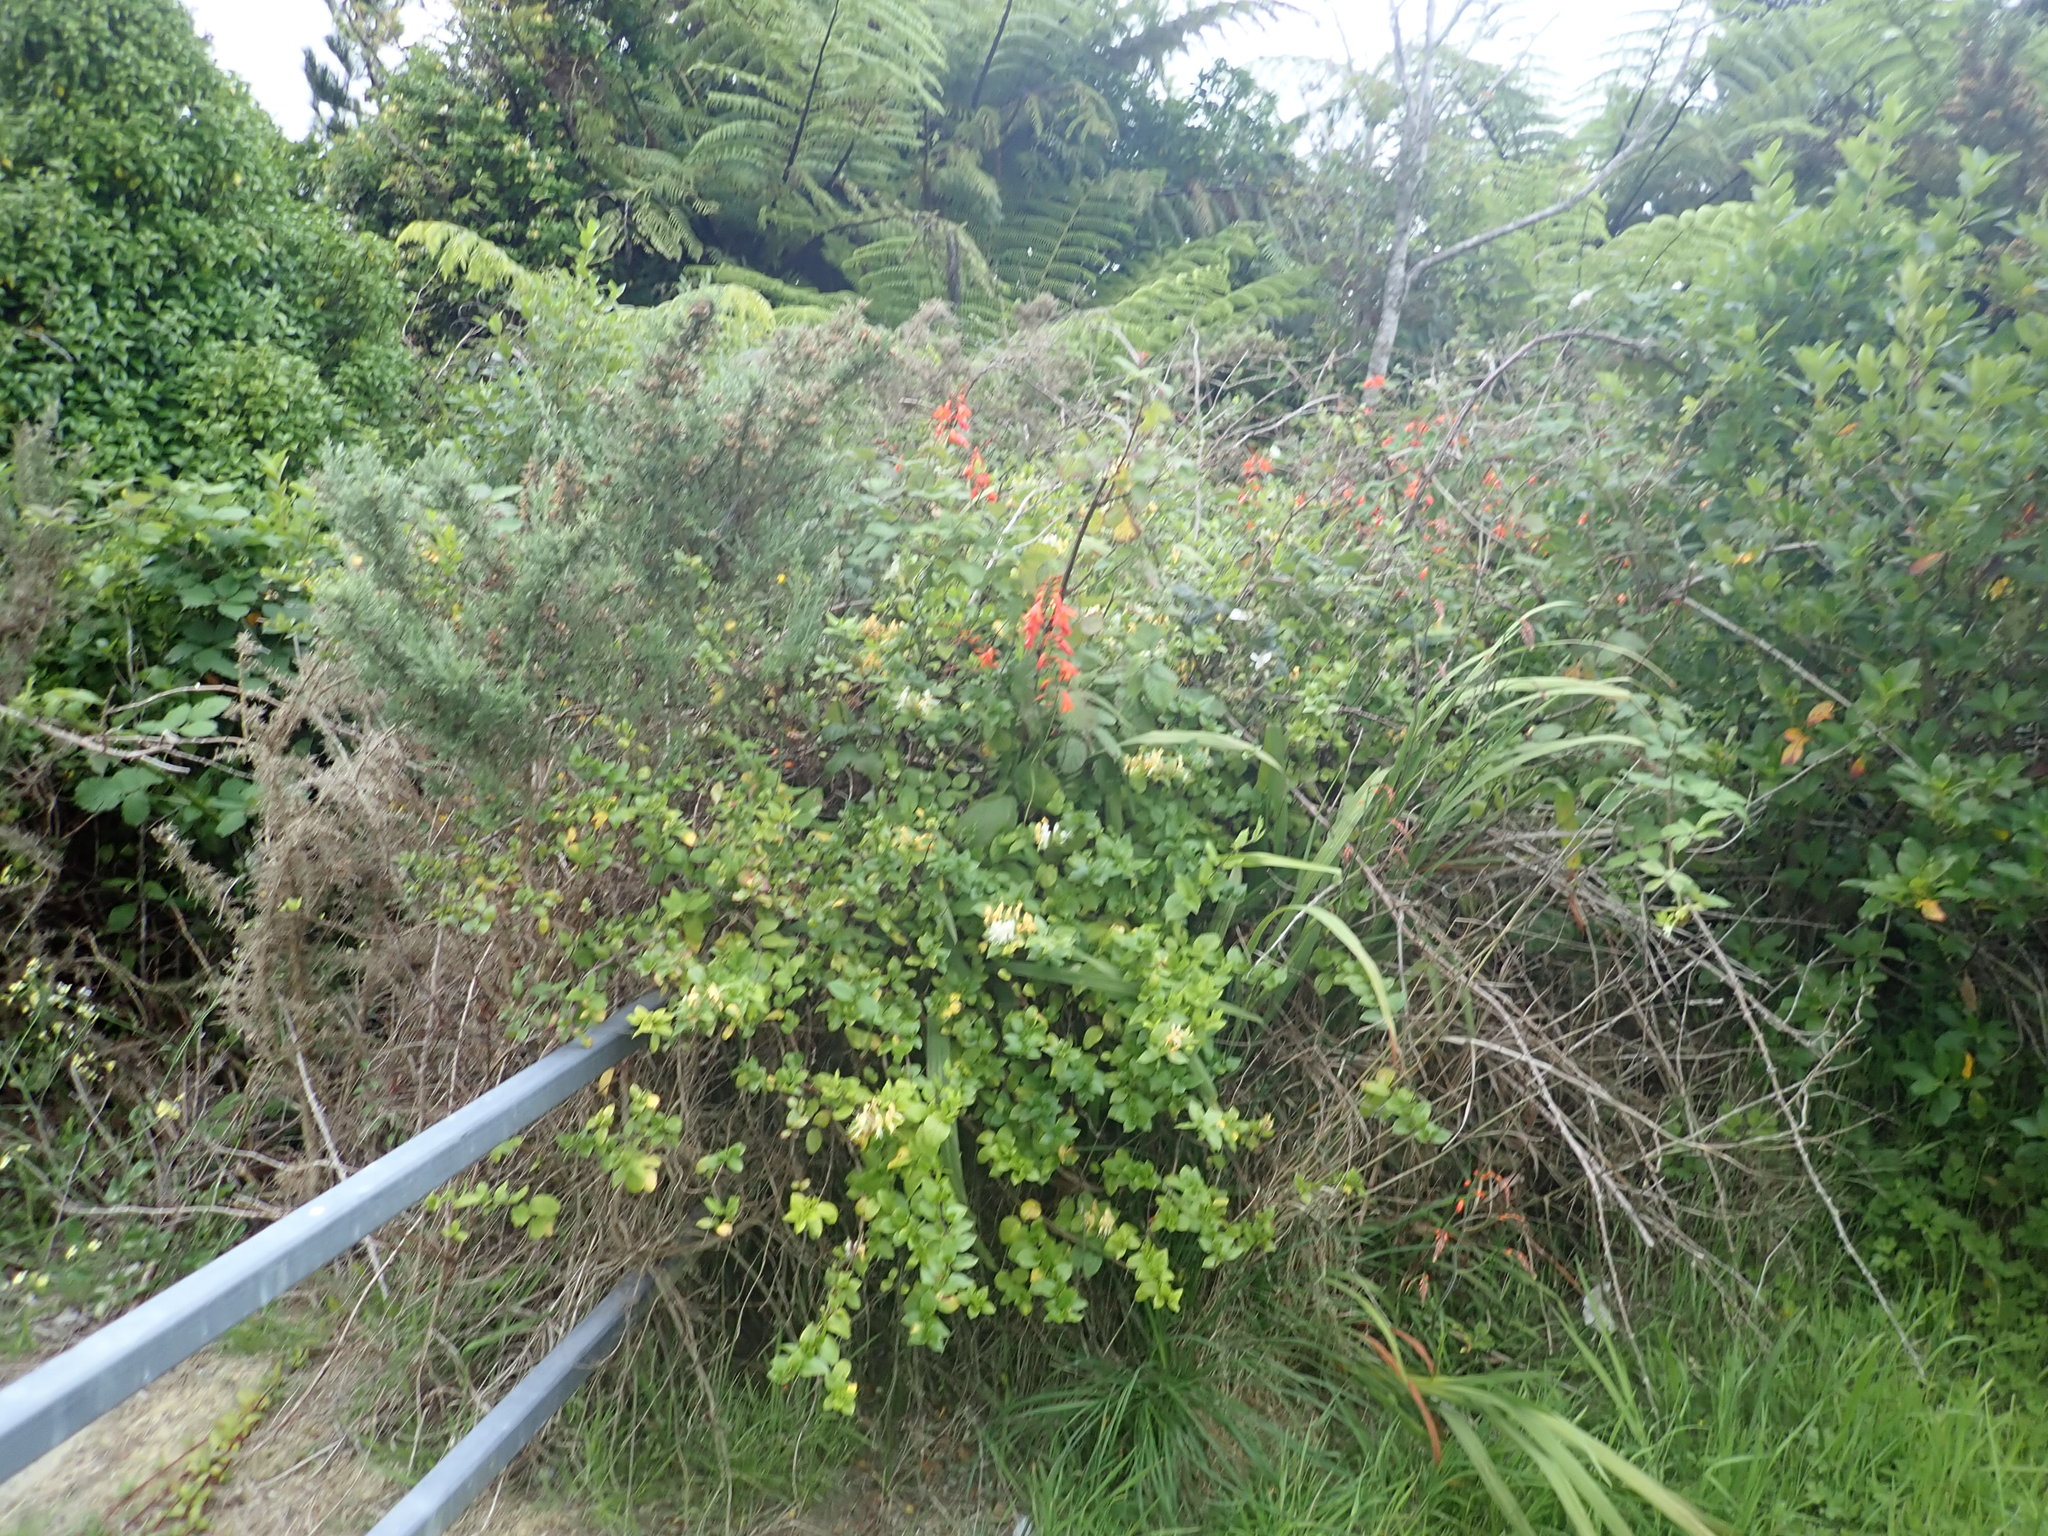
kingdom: Plantae
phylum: Tracheophyta
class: Magnoliopsida
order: Dipsacales
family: Caprifoliaceae
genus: Lonicera
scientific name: Lonicera japonica
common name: Japanese honeysuckle
